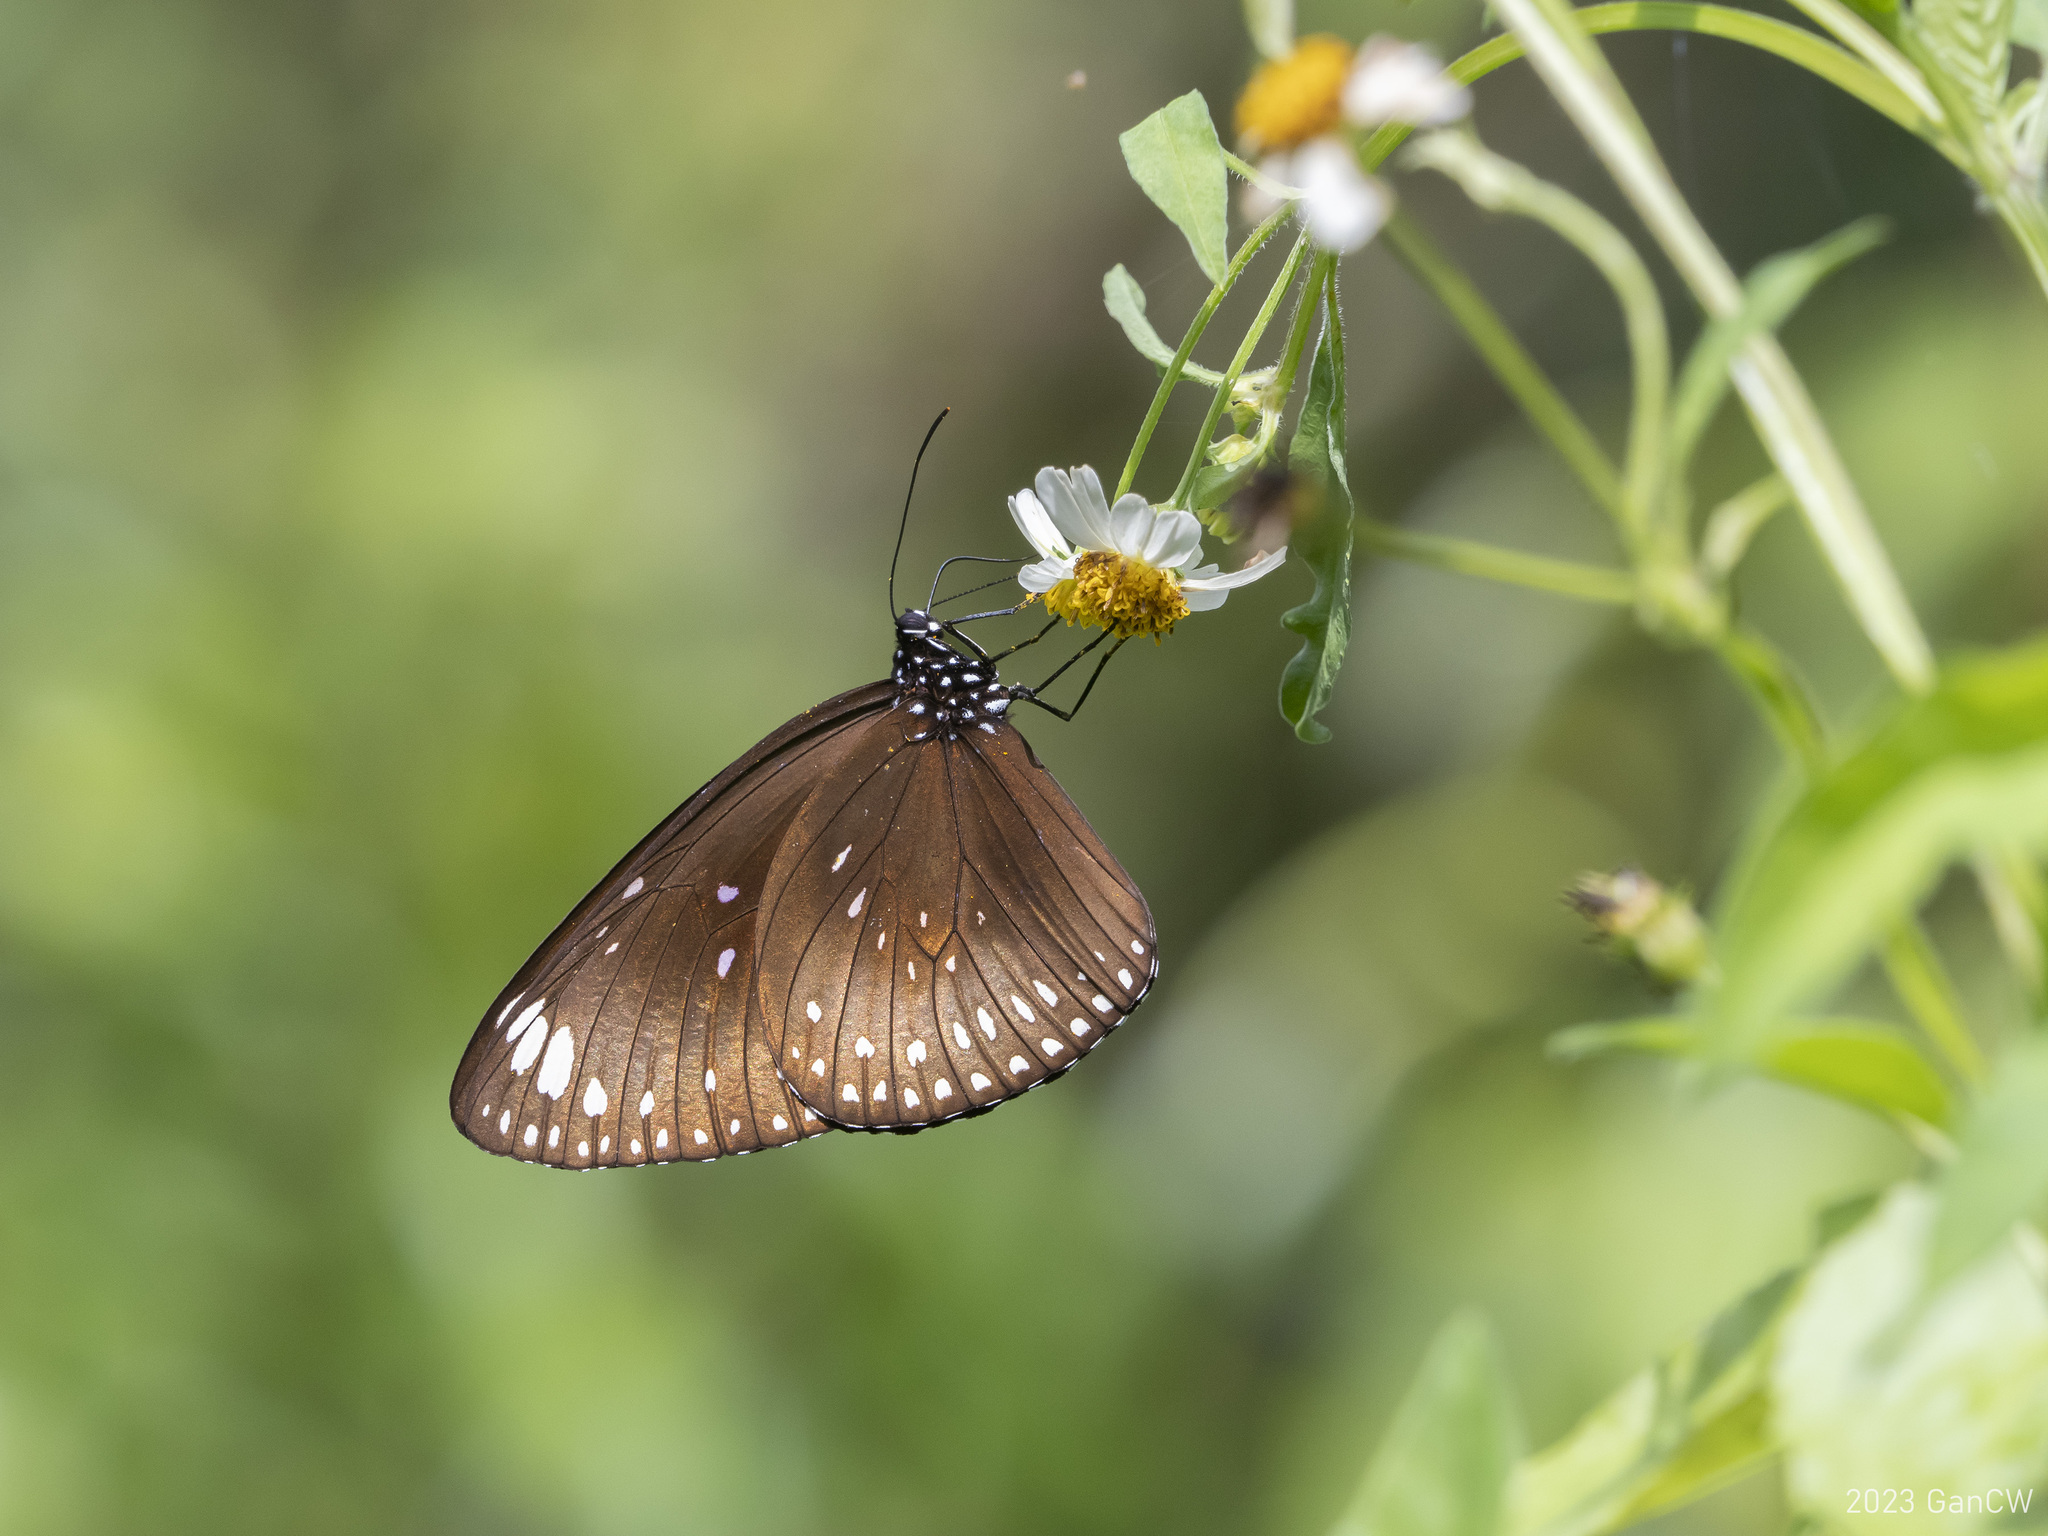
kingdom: Animalia
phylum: Arthropoda
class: Insecta
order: Lepidoptera
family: Nymphalidae
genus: Euploea
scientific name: Euploea midamus
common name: Blue-spotted crow butterfly
